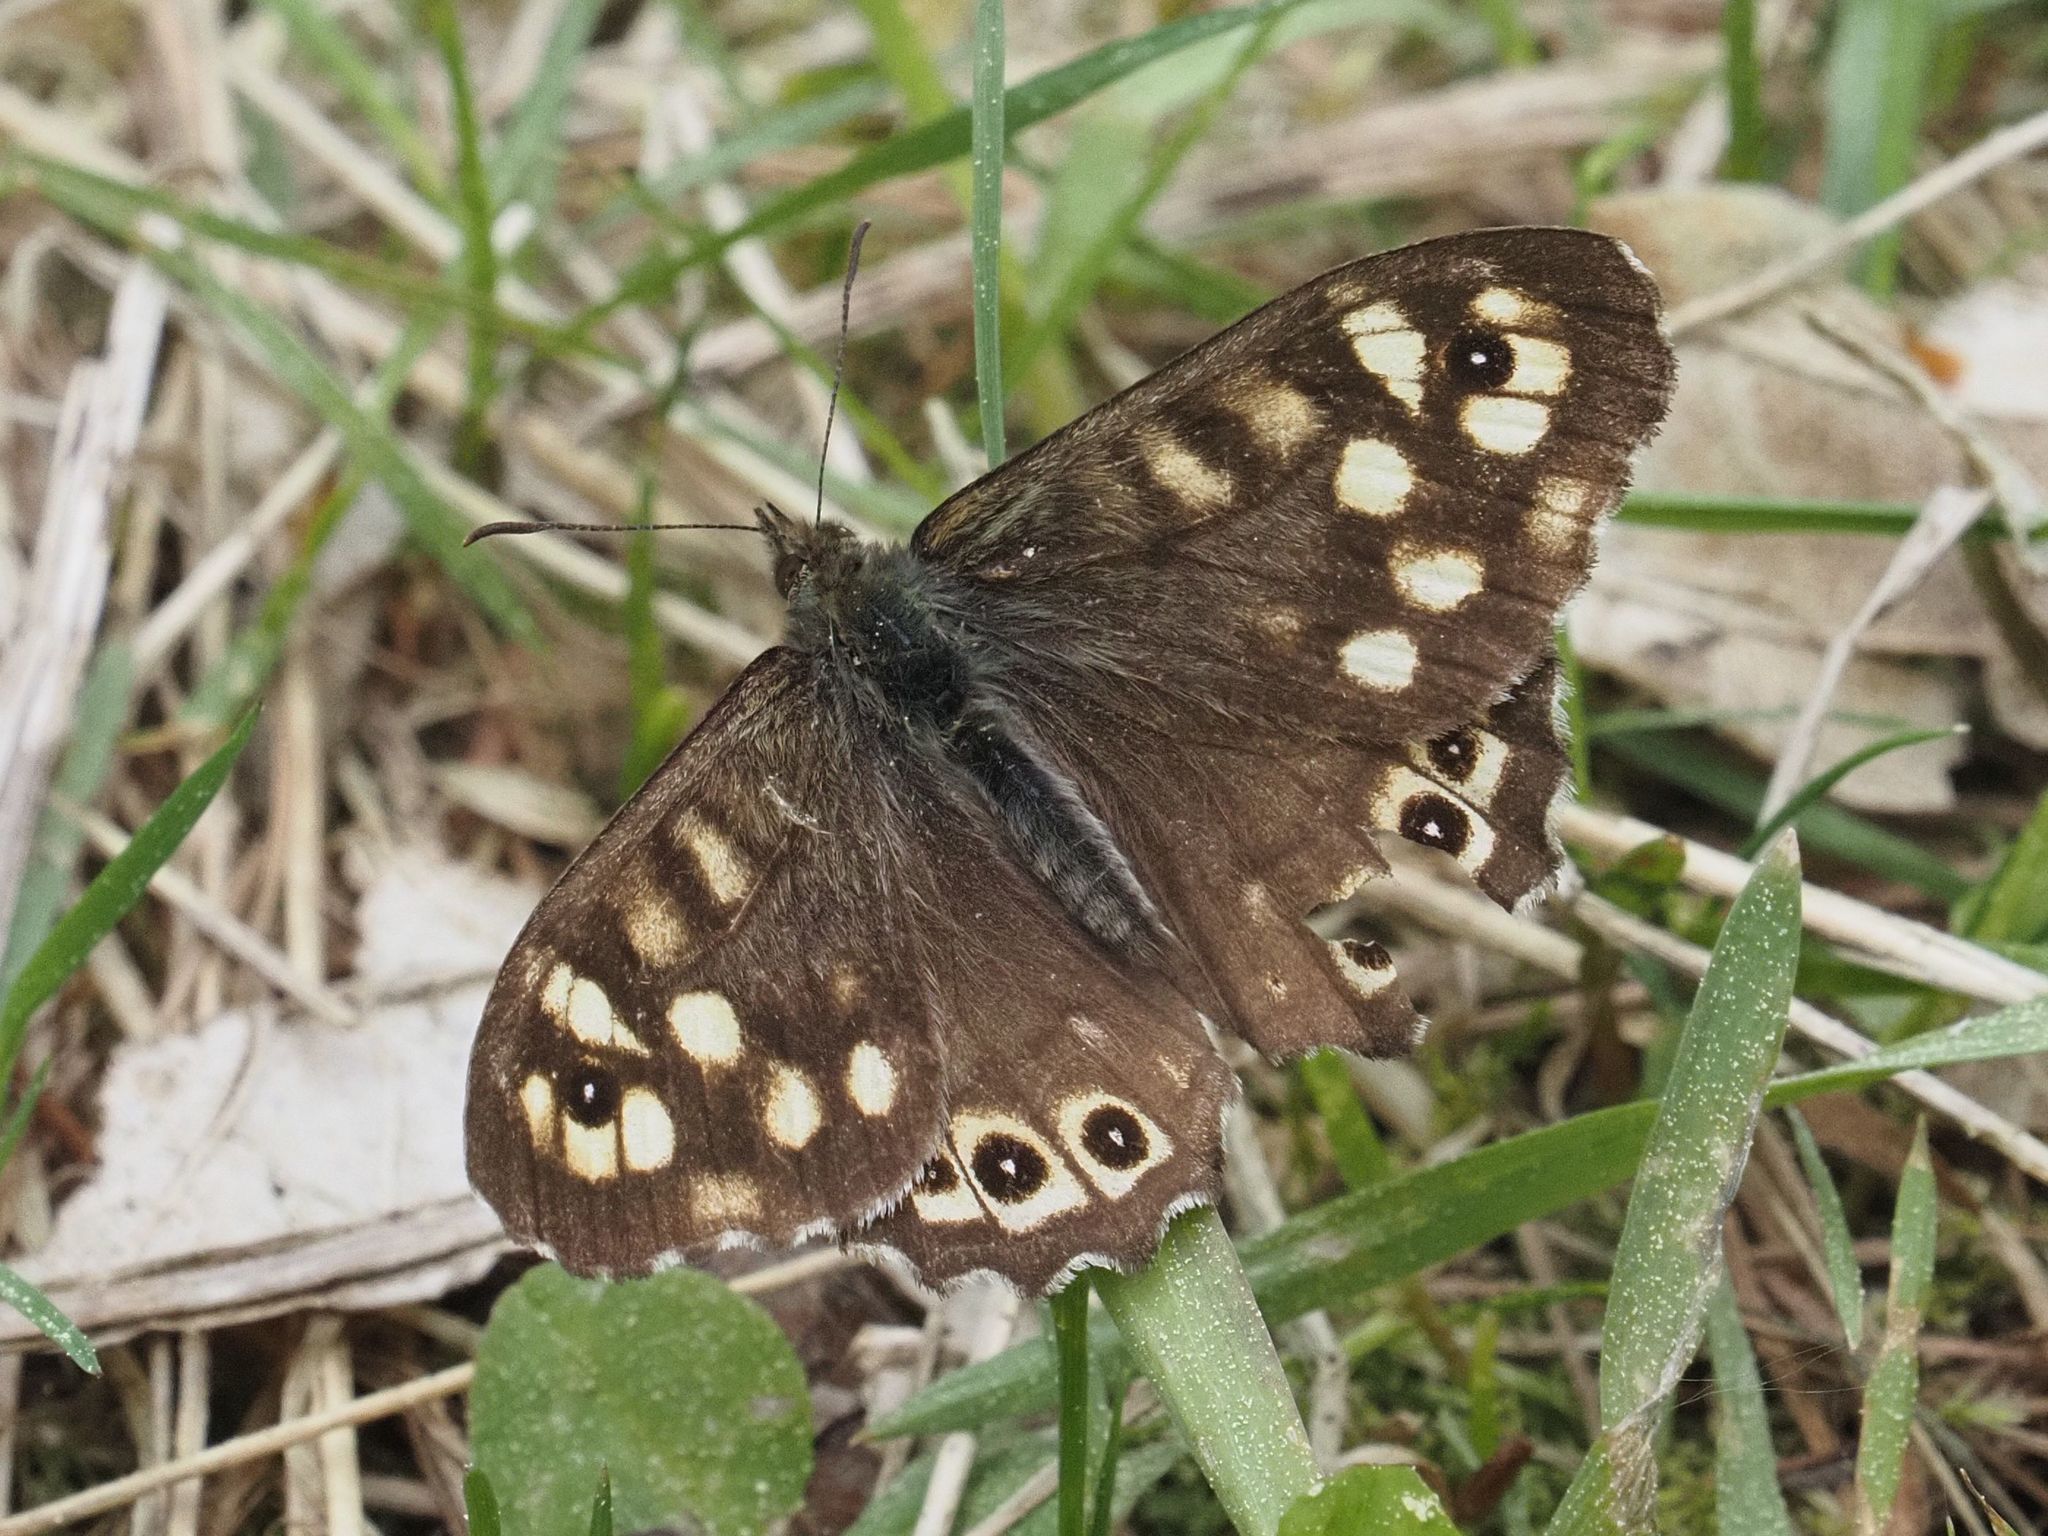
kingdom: Animalia
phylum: Arthropoda
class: Insecta
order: Lepidoptera
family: Nymphalidae
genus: Pararge
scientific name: Pararge aegeria
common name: Speckled wood
